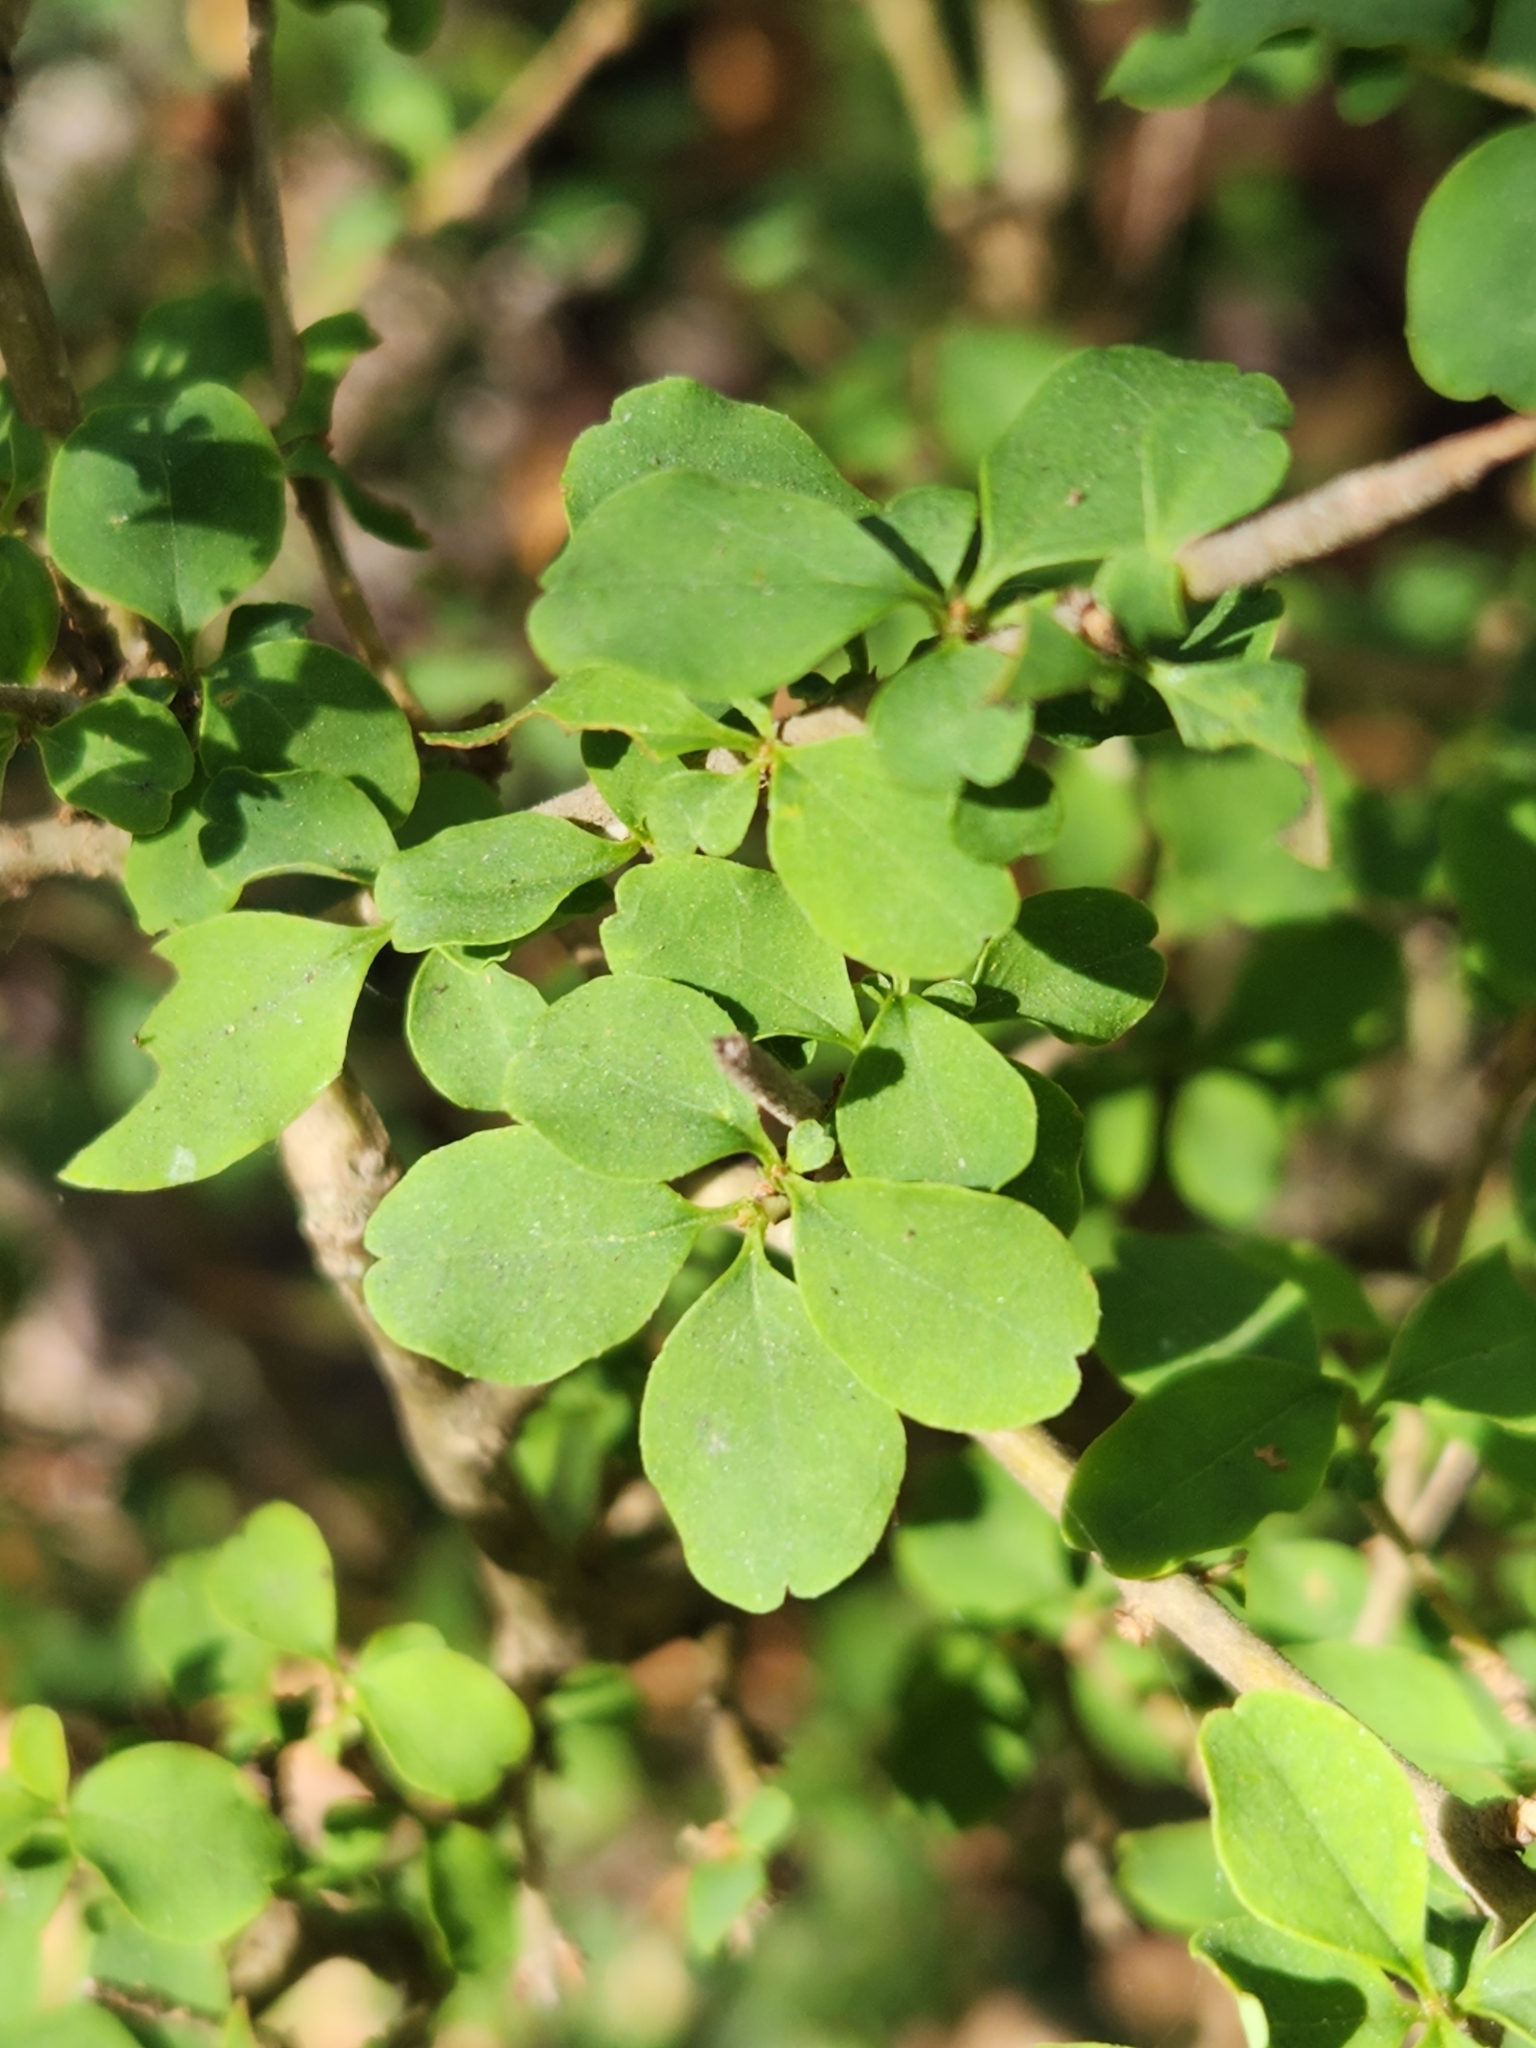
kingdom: Plantae
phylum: Tracheophyta
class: Magnoliopsida
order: Lamiales
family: Oleaceae
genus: Ligustrum
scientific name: Ligustrum sinense
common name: Chinese privet
